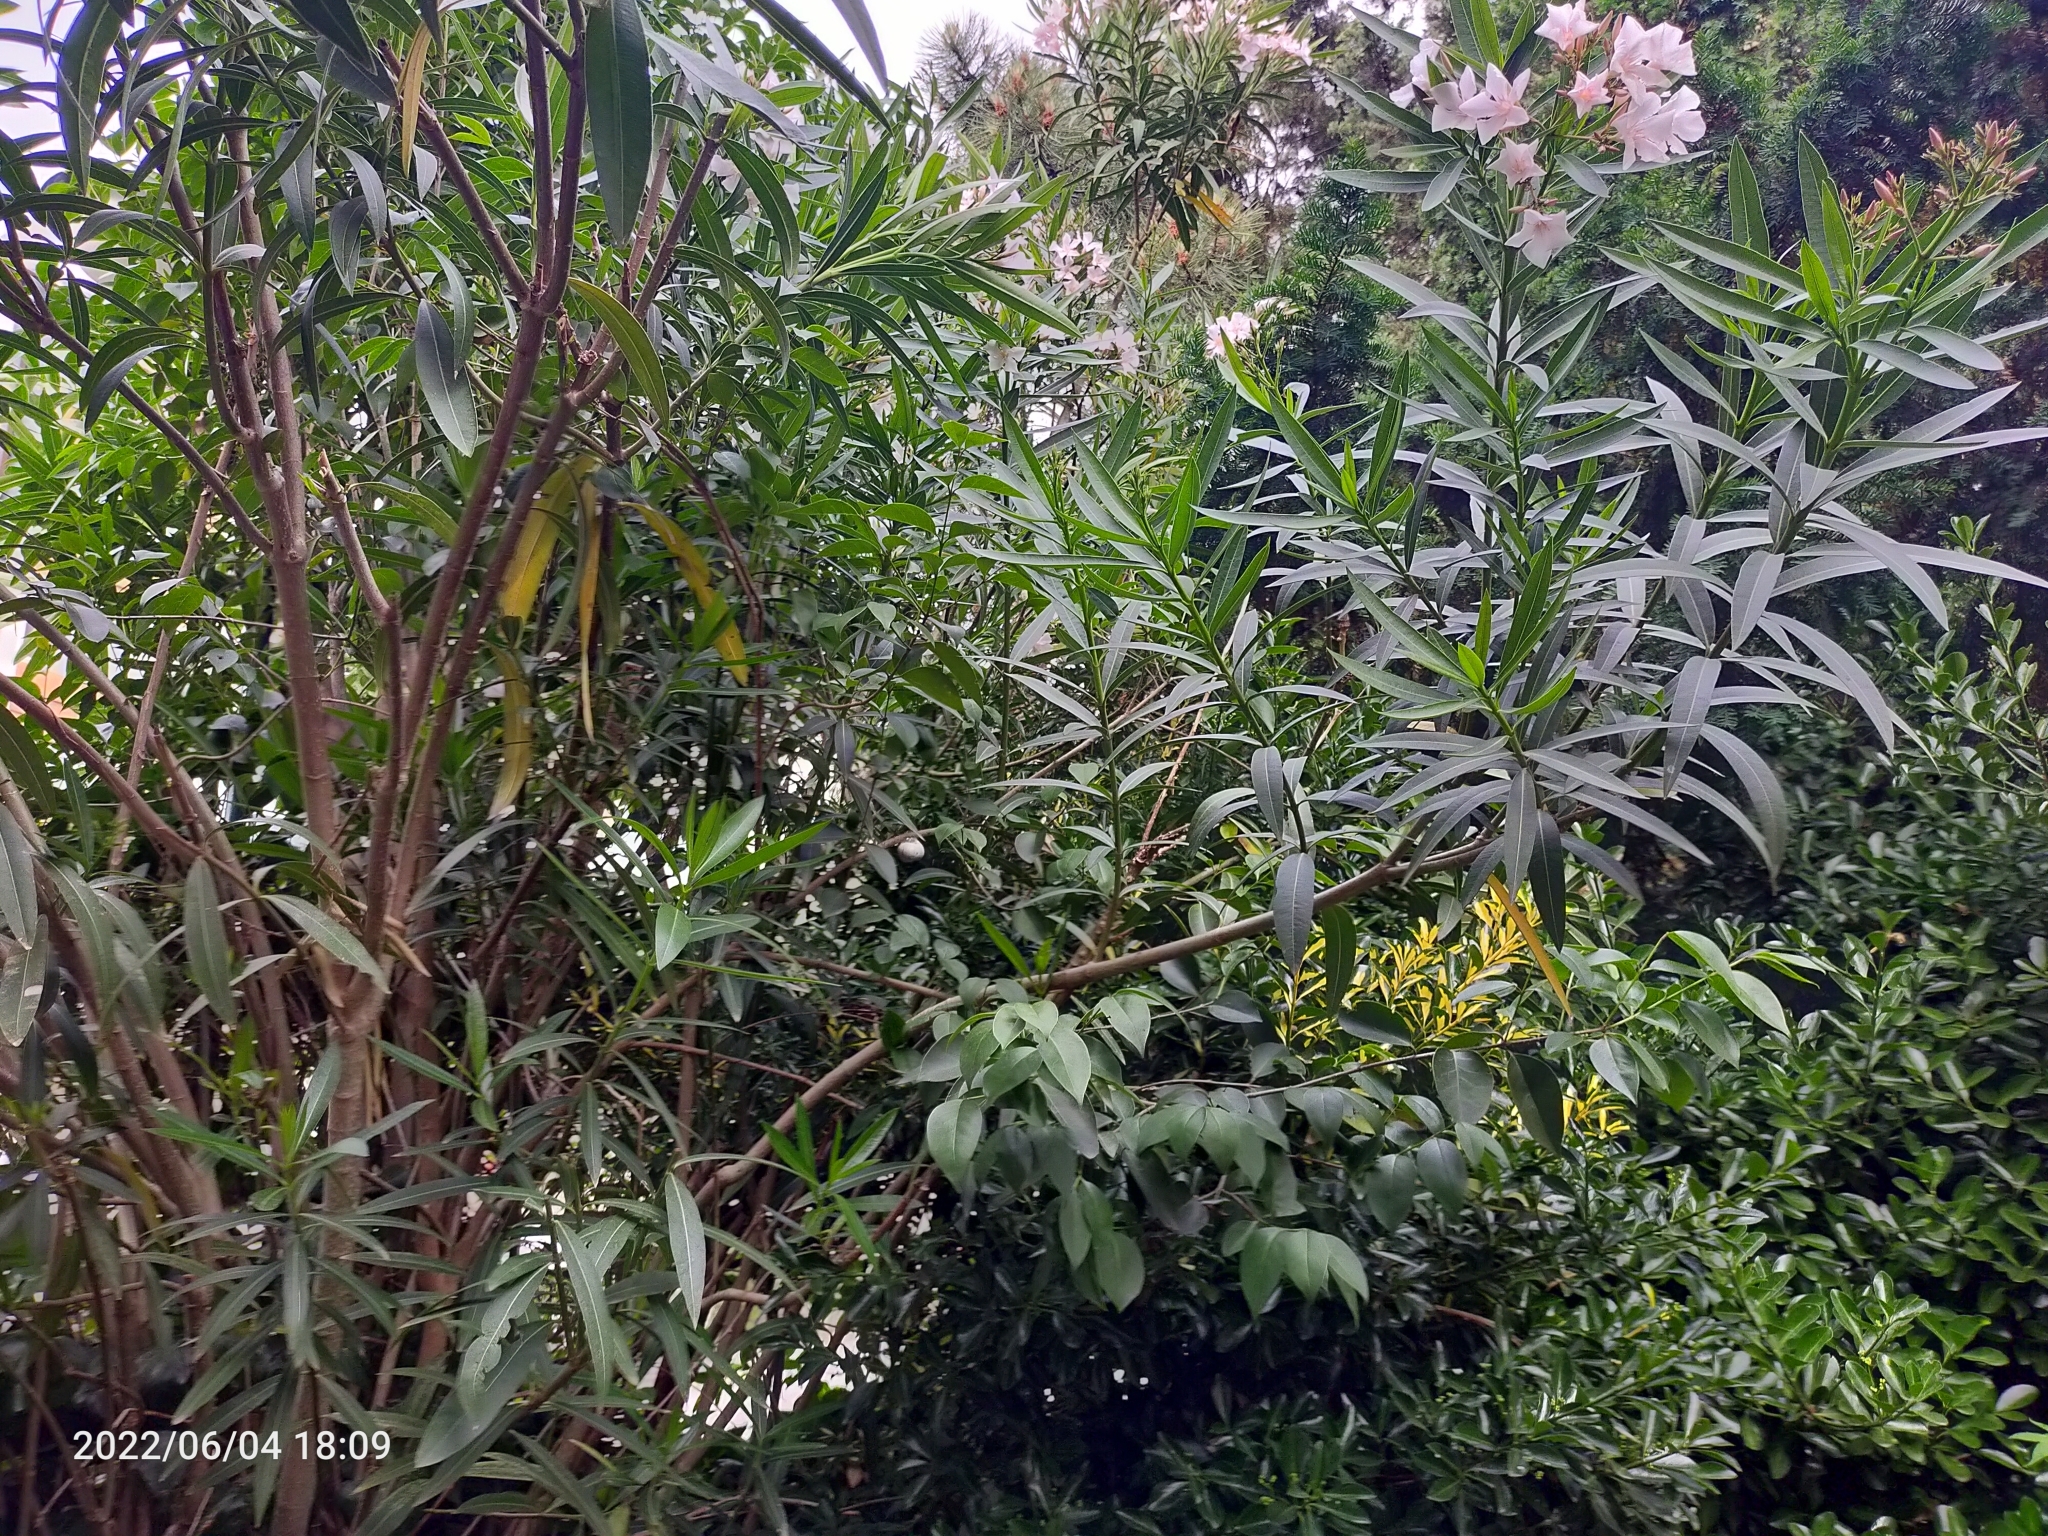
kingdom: Plantae
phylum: Tracheophyta
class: Magnoliopsida
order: Gentianales
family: Apocynaceae
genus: Nerium
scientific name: Nerium oleander
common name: Oleander
